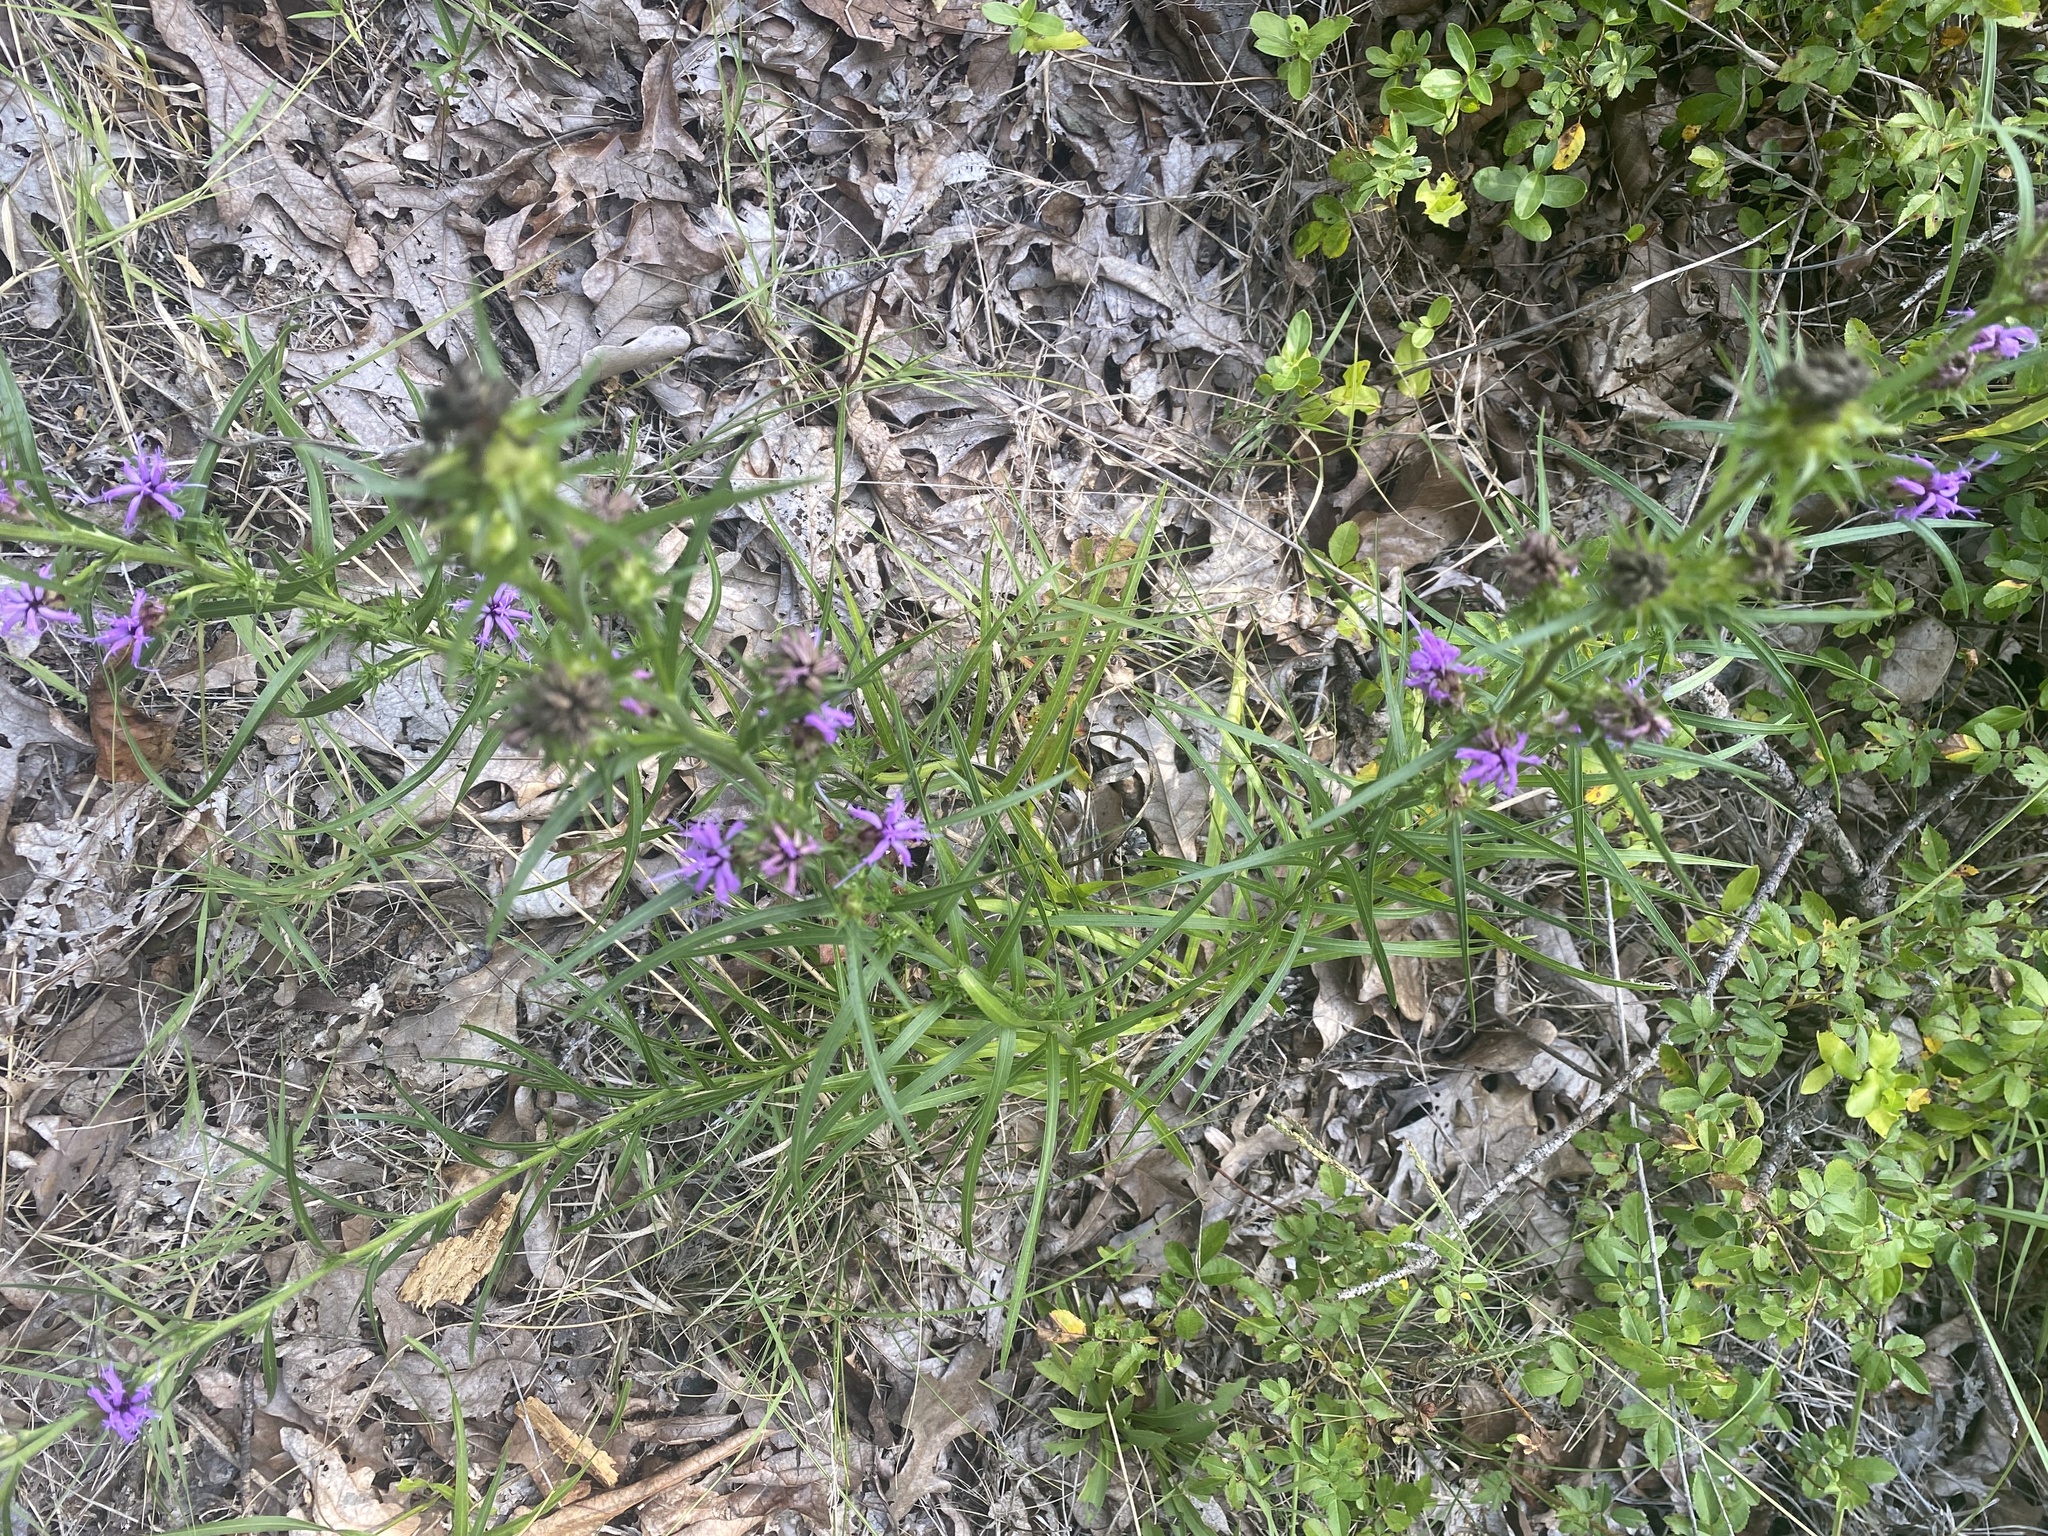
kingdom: Plantae
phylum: Tracheophyta
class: Magnoliopsida
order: Asterales
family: Asteraceae
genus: Liatris
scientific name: Liatris squarrosa
